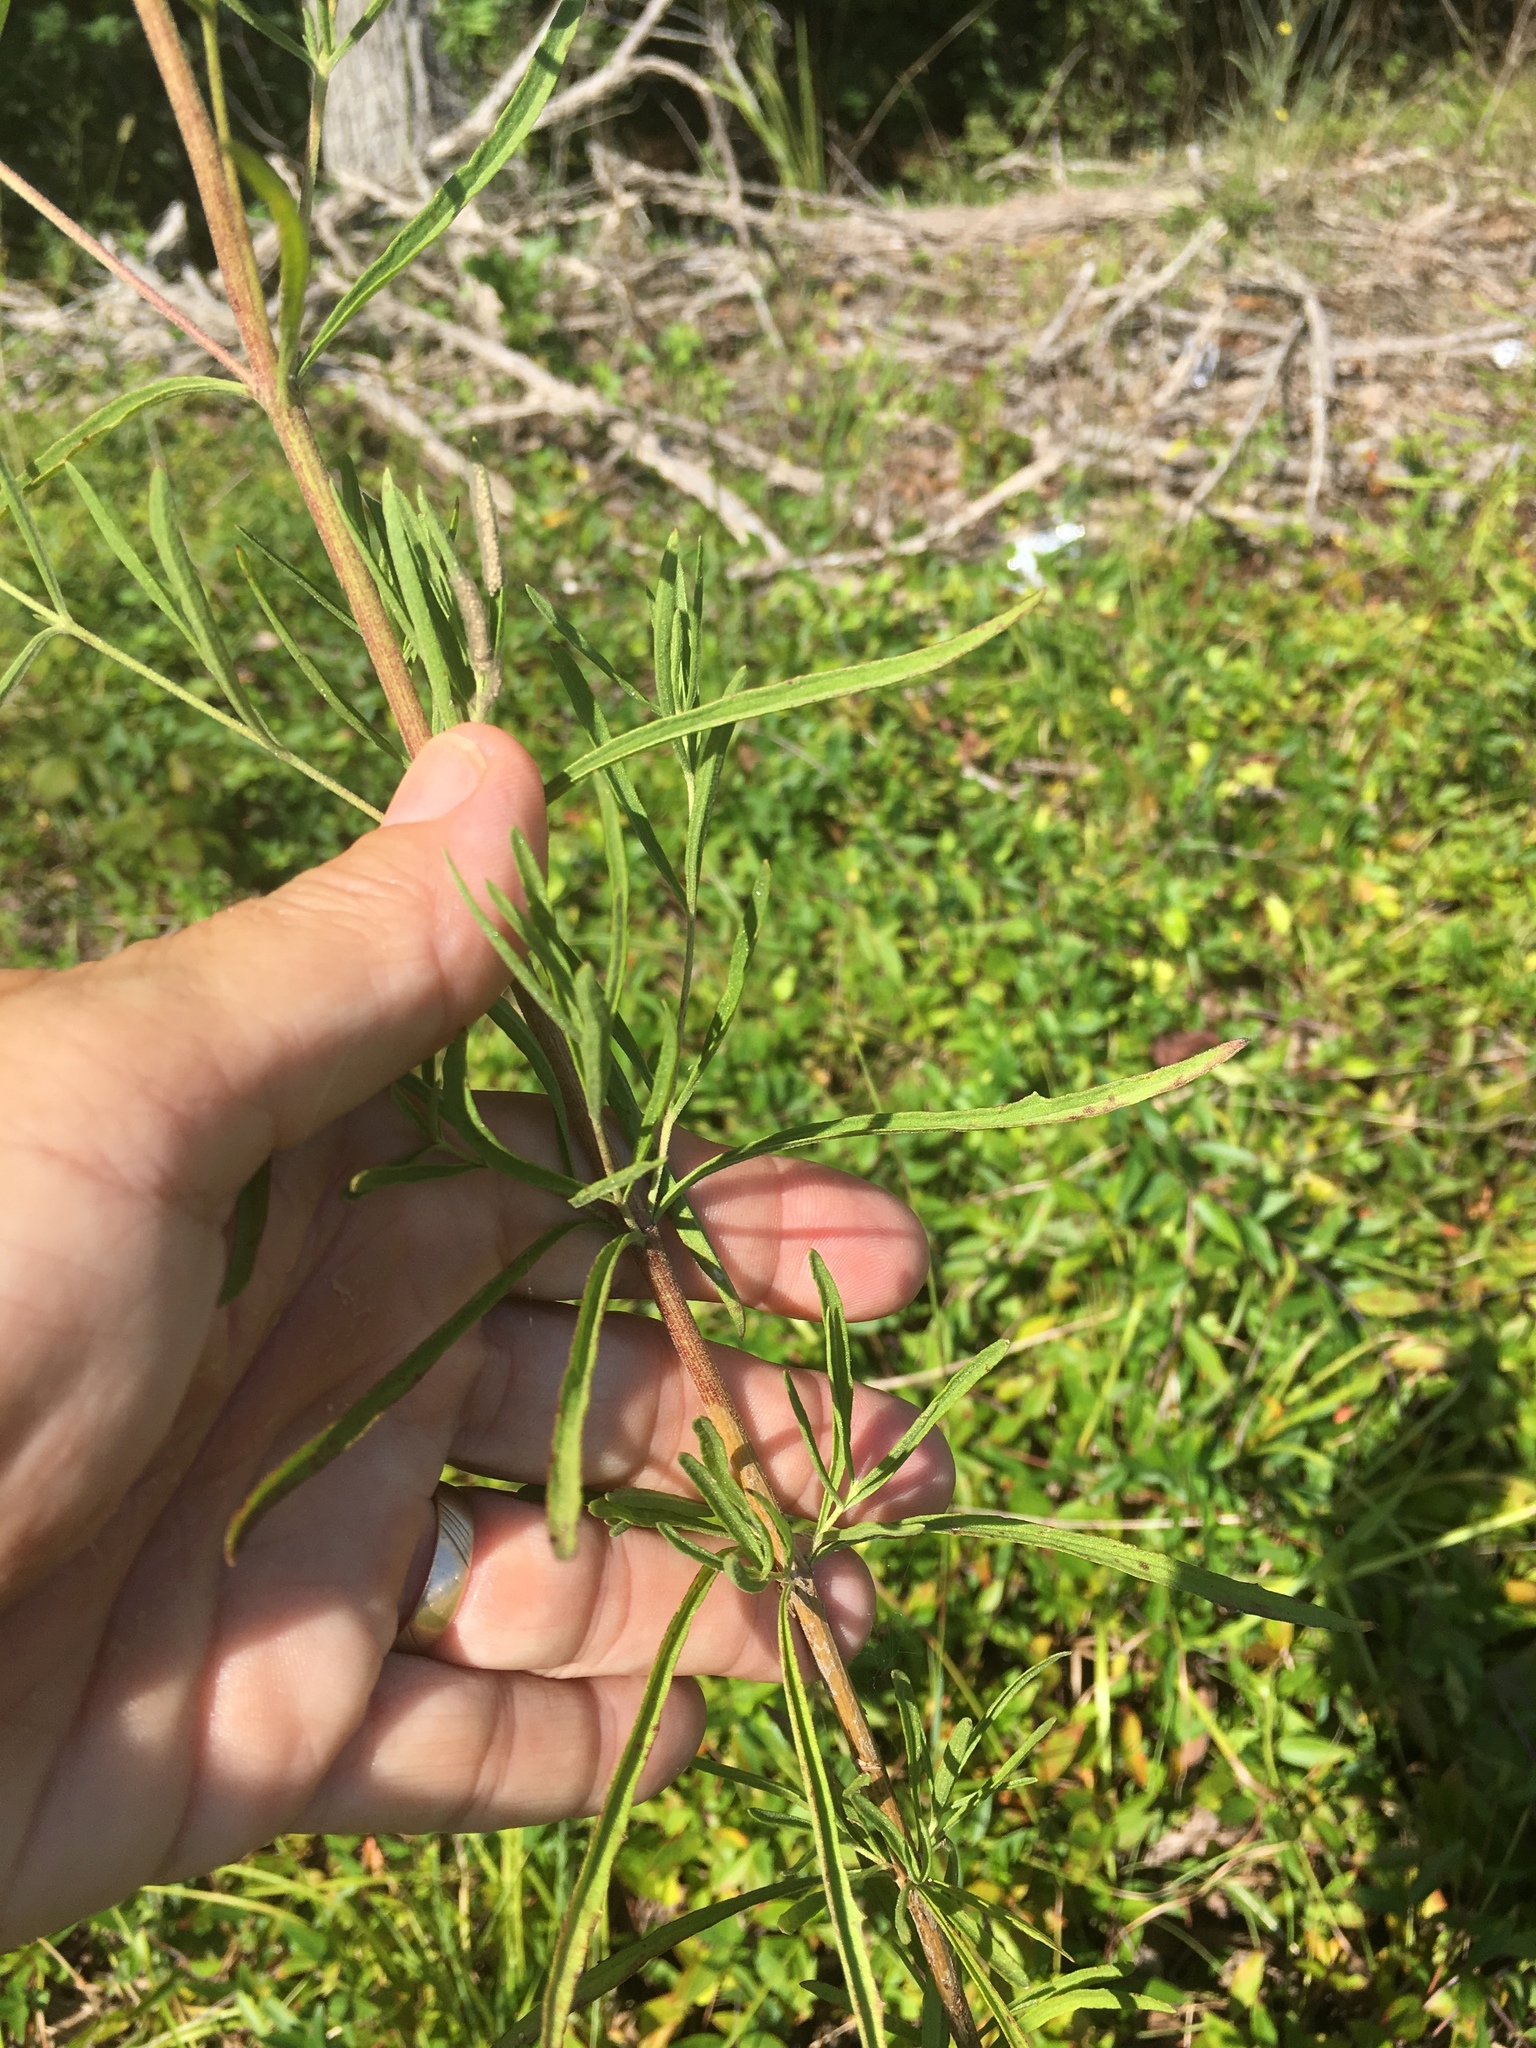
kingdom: Plantae
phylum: Tracheophyta
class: Magnoliopsida
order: Asterales
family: Asteraceae
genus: Eupatorium
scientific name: Eupatorium hyssopifolium
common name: Hyssop-leaf thoroughwort
